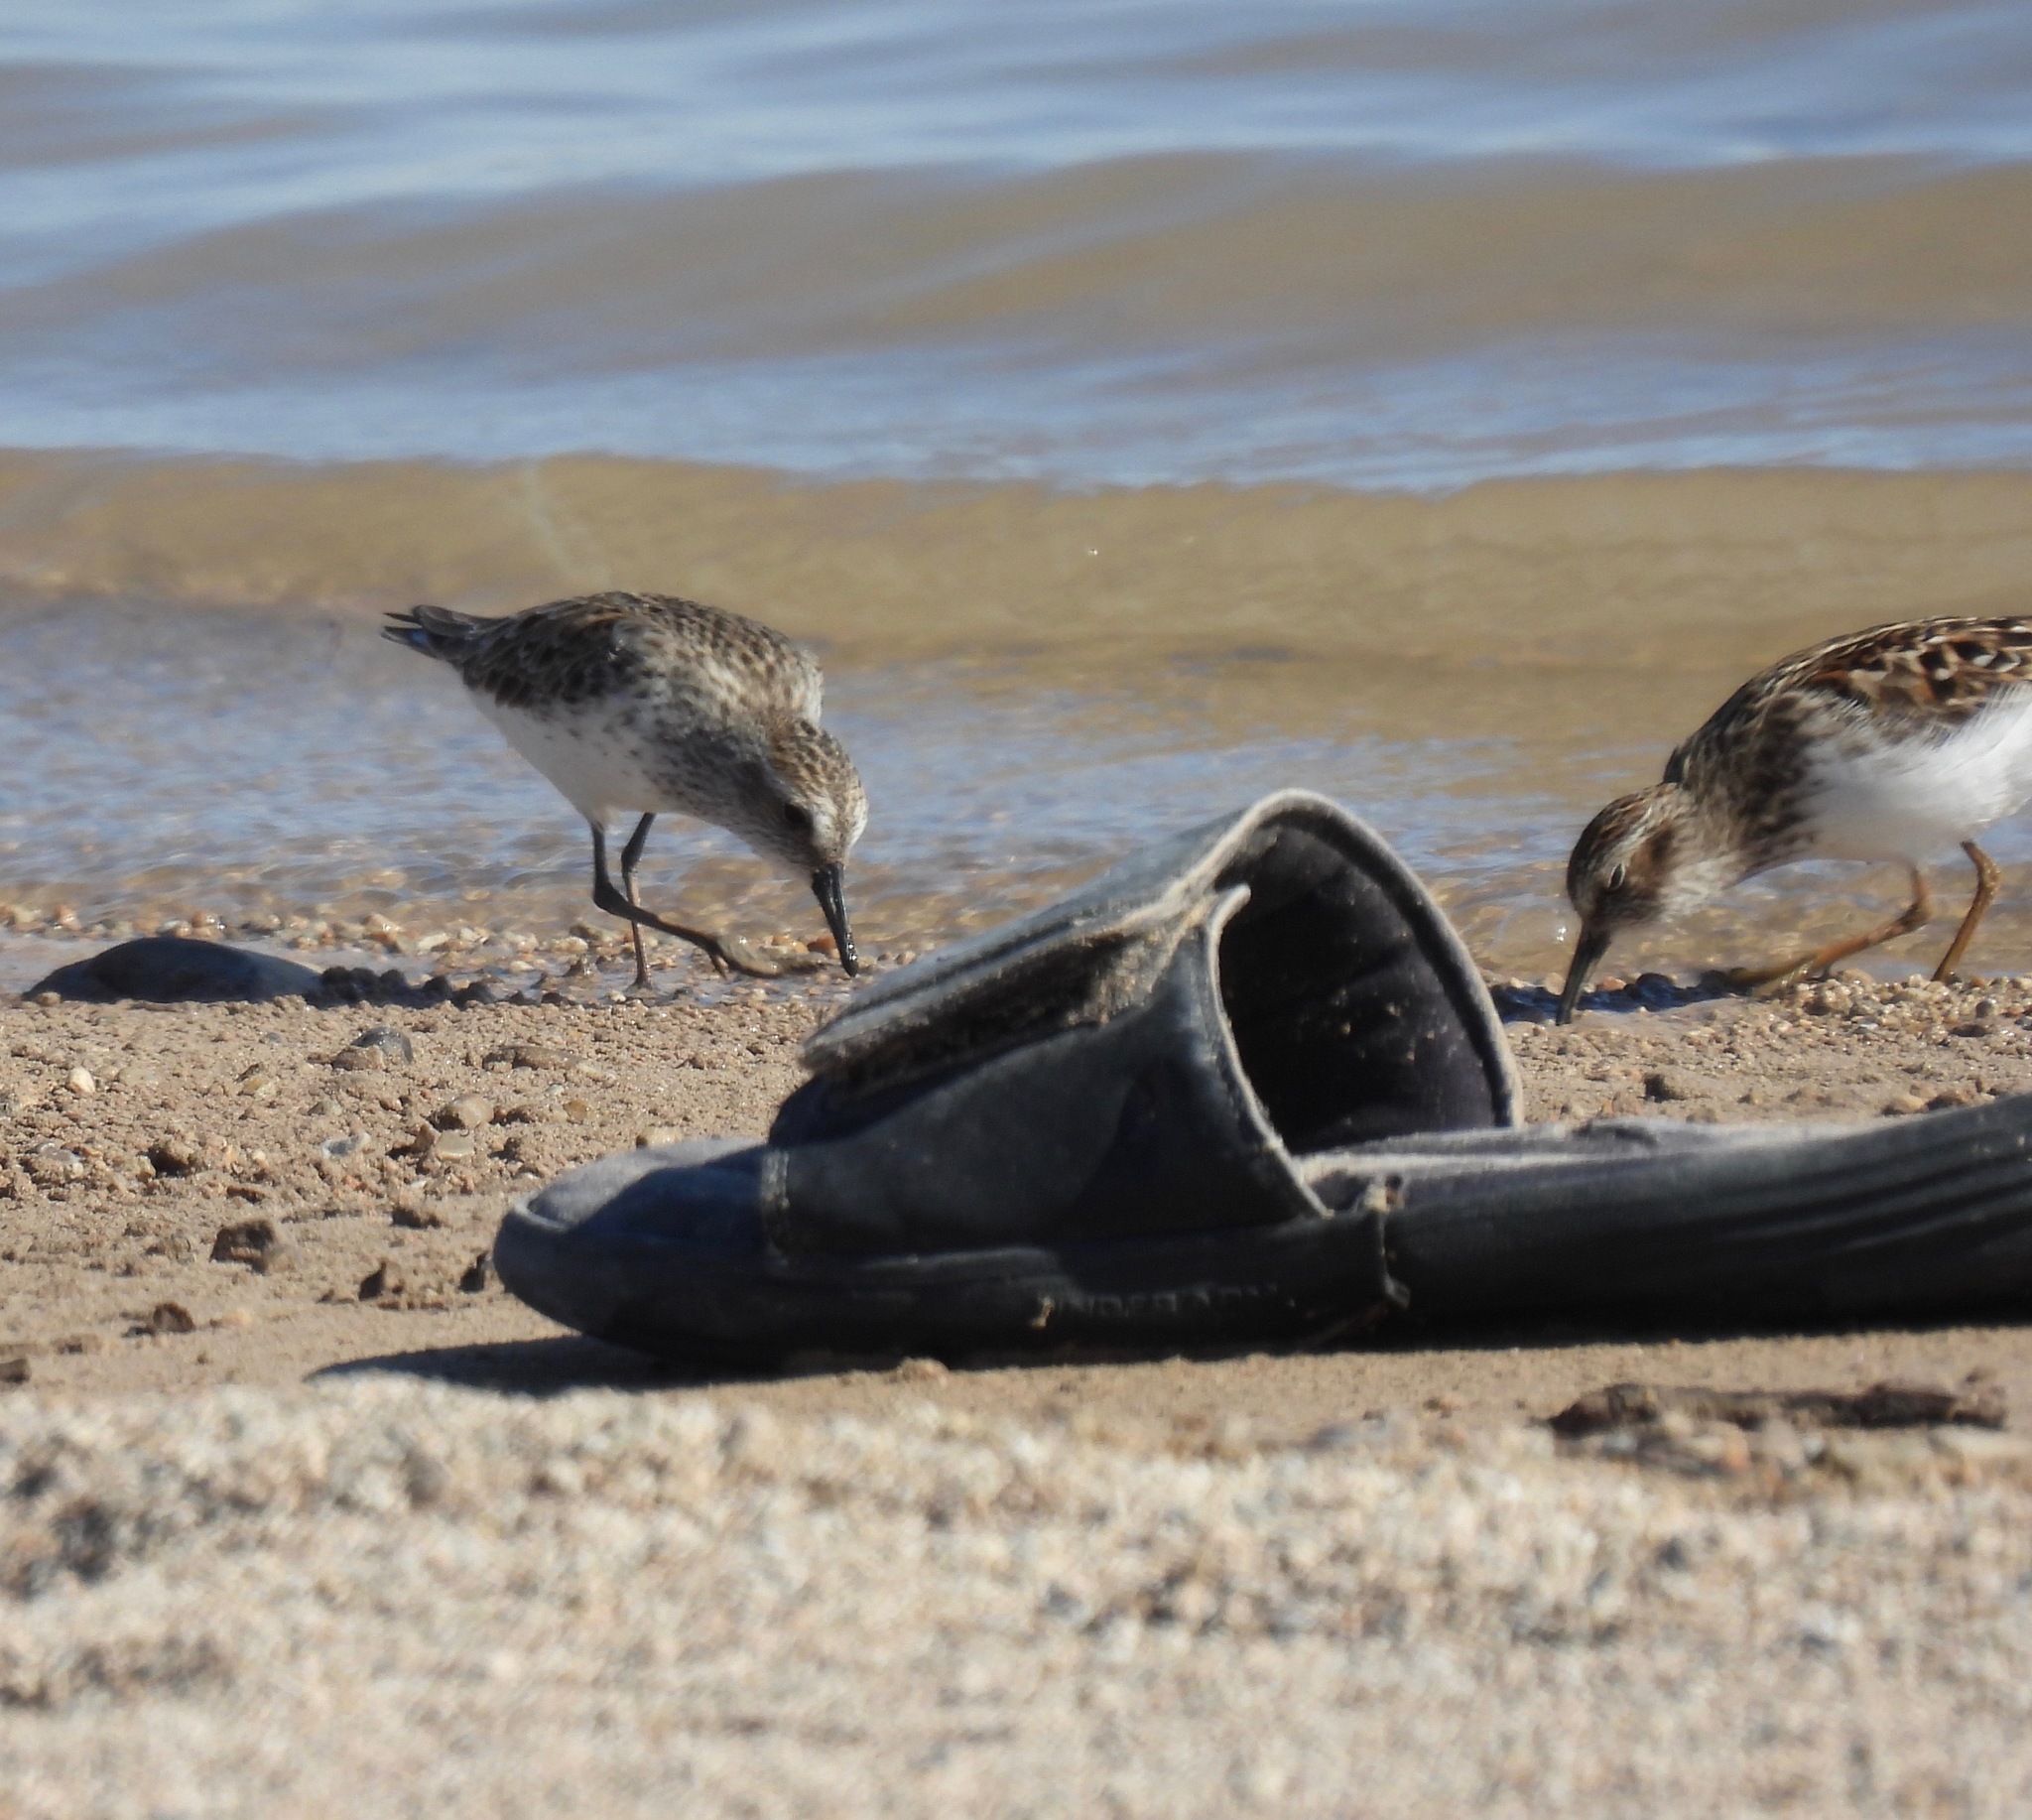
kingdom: Animalia
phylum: Chordata
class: Aves
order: Charadriiformes
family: Scolopacidae
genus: Calidris
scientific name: Calidris pusilla
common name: Semipalmated sandpiper
